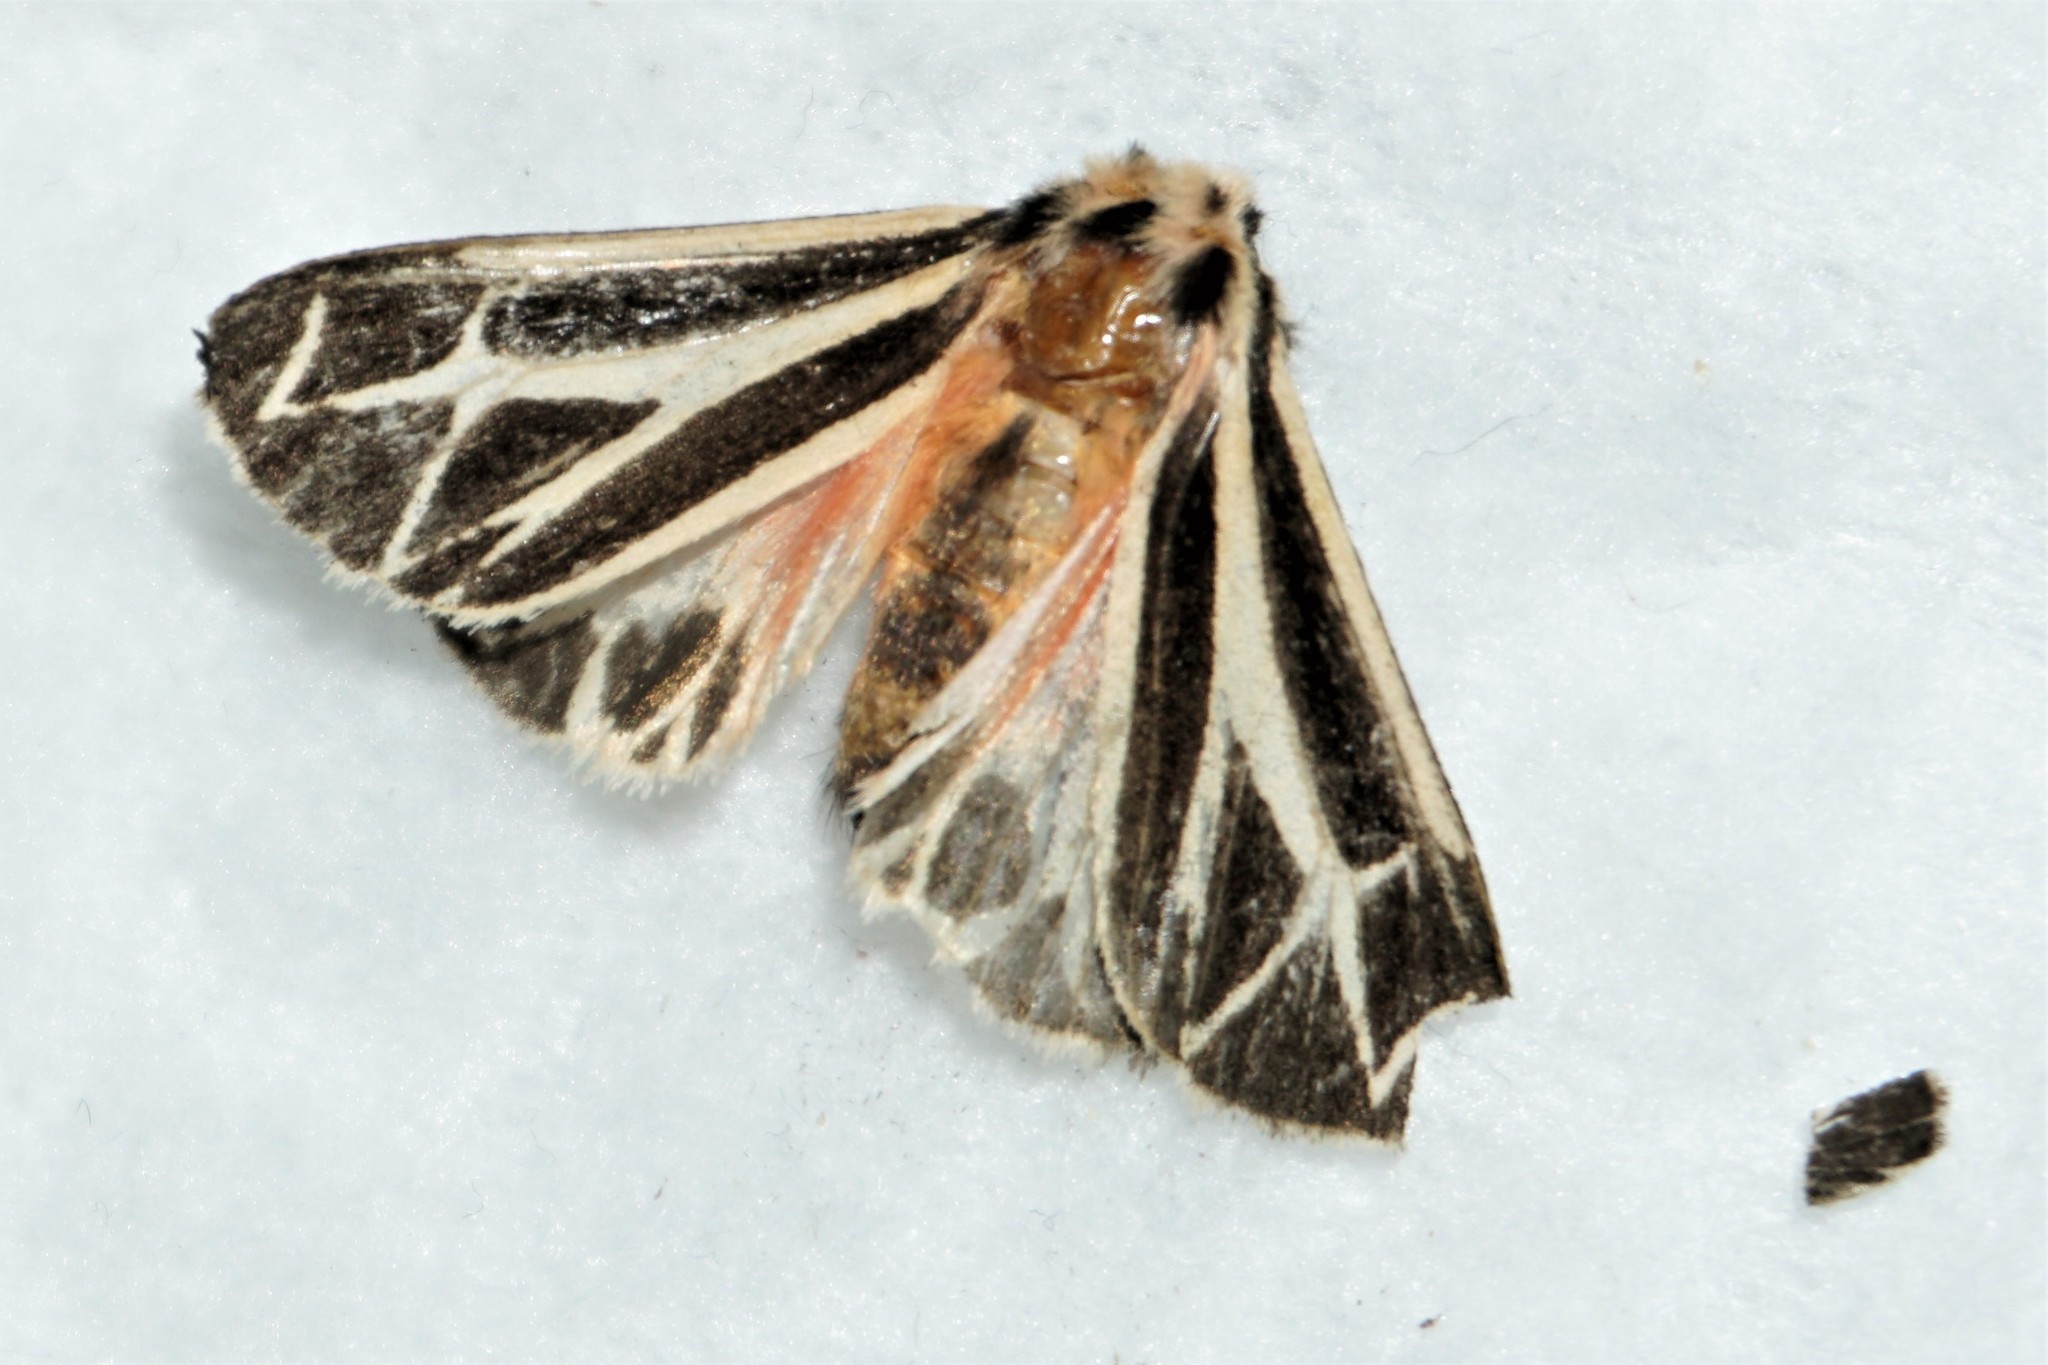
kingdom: Animalia
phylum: Arthropoda
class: Insecta
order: Lepidoptera
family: Erebidae
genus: Apantesis
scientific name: Apantesis phalerata
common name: Harnessed tiger moth
